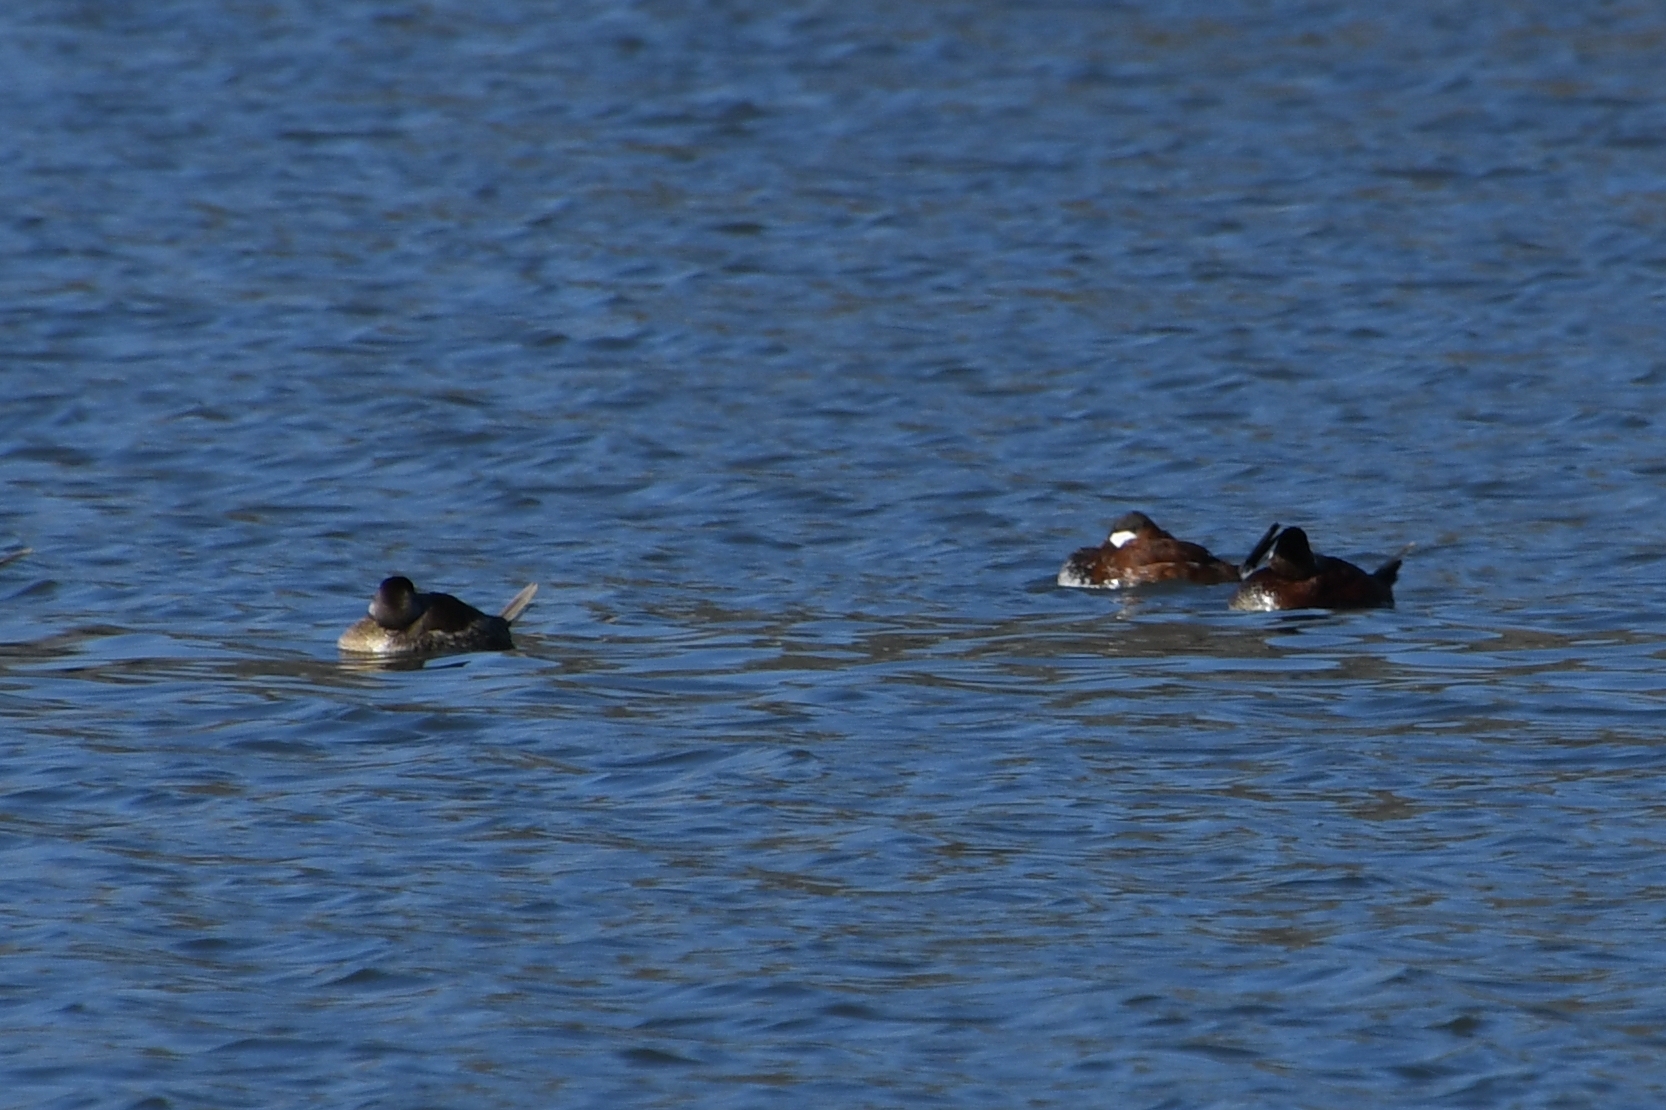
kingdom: Animalia
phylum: Chordata
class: Aves
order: Anseriformes
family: Anatidae
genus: Oxyura
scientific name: Oxyura jamaicensis
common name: Ruddy duck
